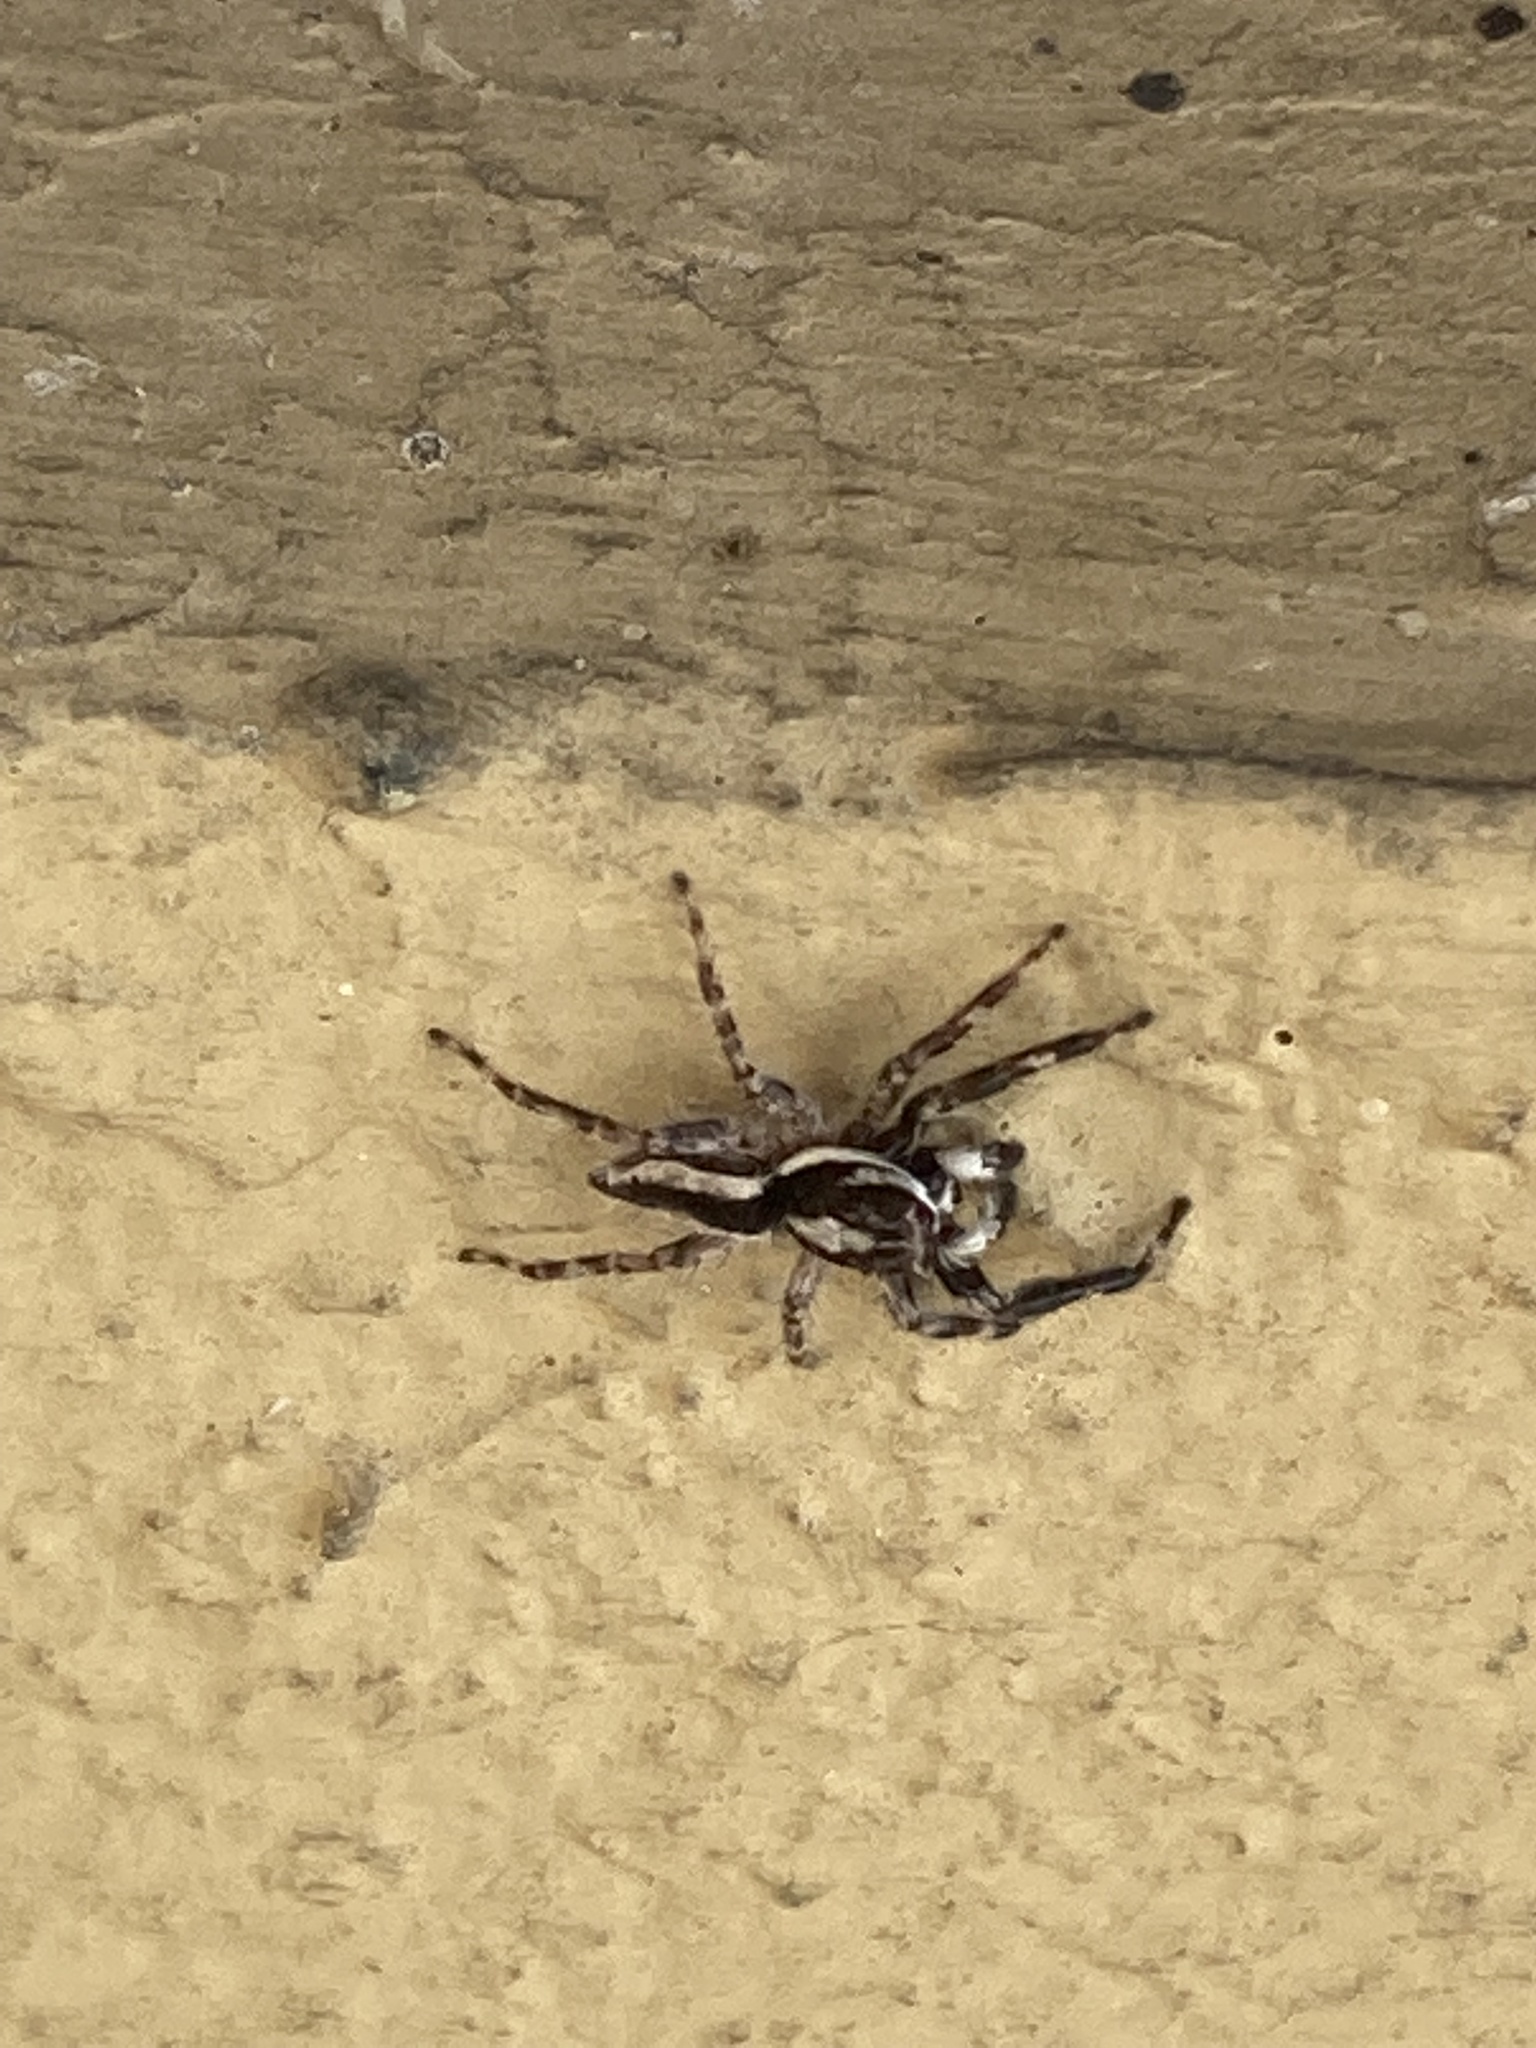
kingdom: Animalia
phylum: Arthropoda
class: Arachnida
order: Araneae
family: Salticidae
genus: Menemerus
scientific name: Menemerus bivittatus
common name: Gray wall jumper
